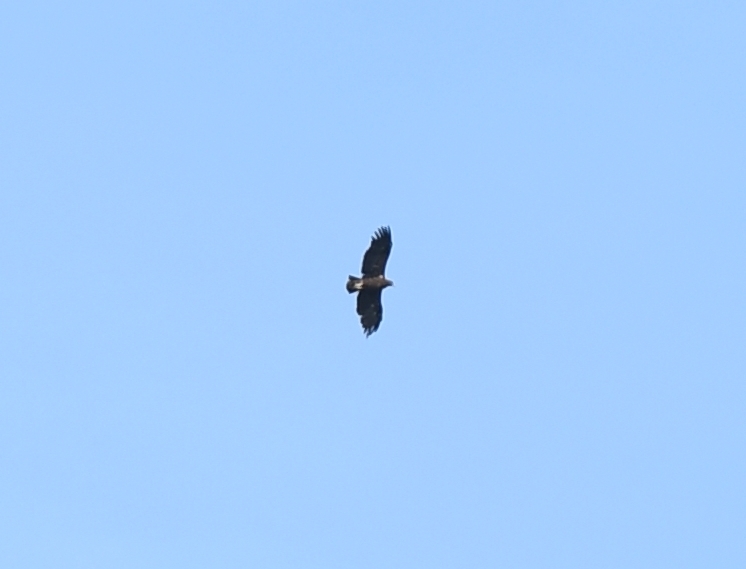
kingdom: Animalia
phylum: Chordata
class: Aves
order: Accipitriformes
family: Accipitridae
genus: Aquila
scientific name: Aquila clanga
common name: Greater spotted eagle
